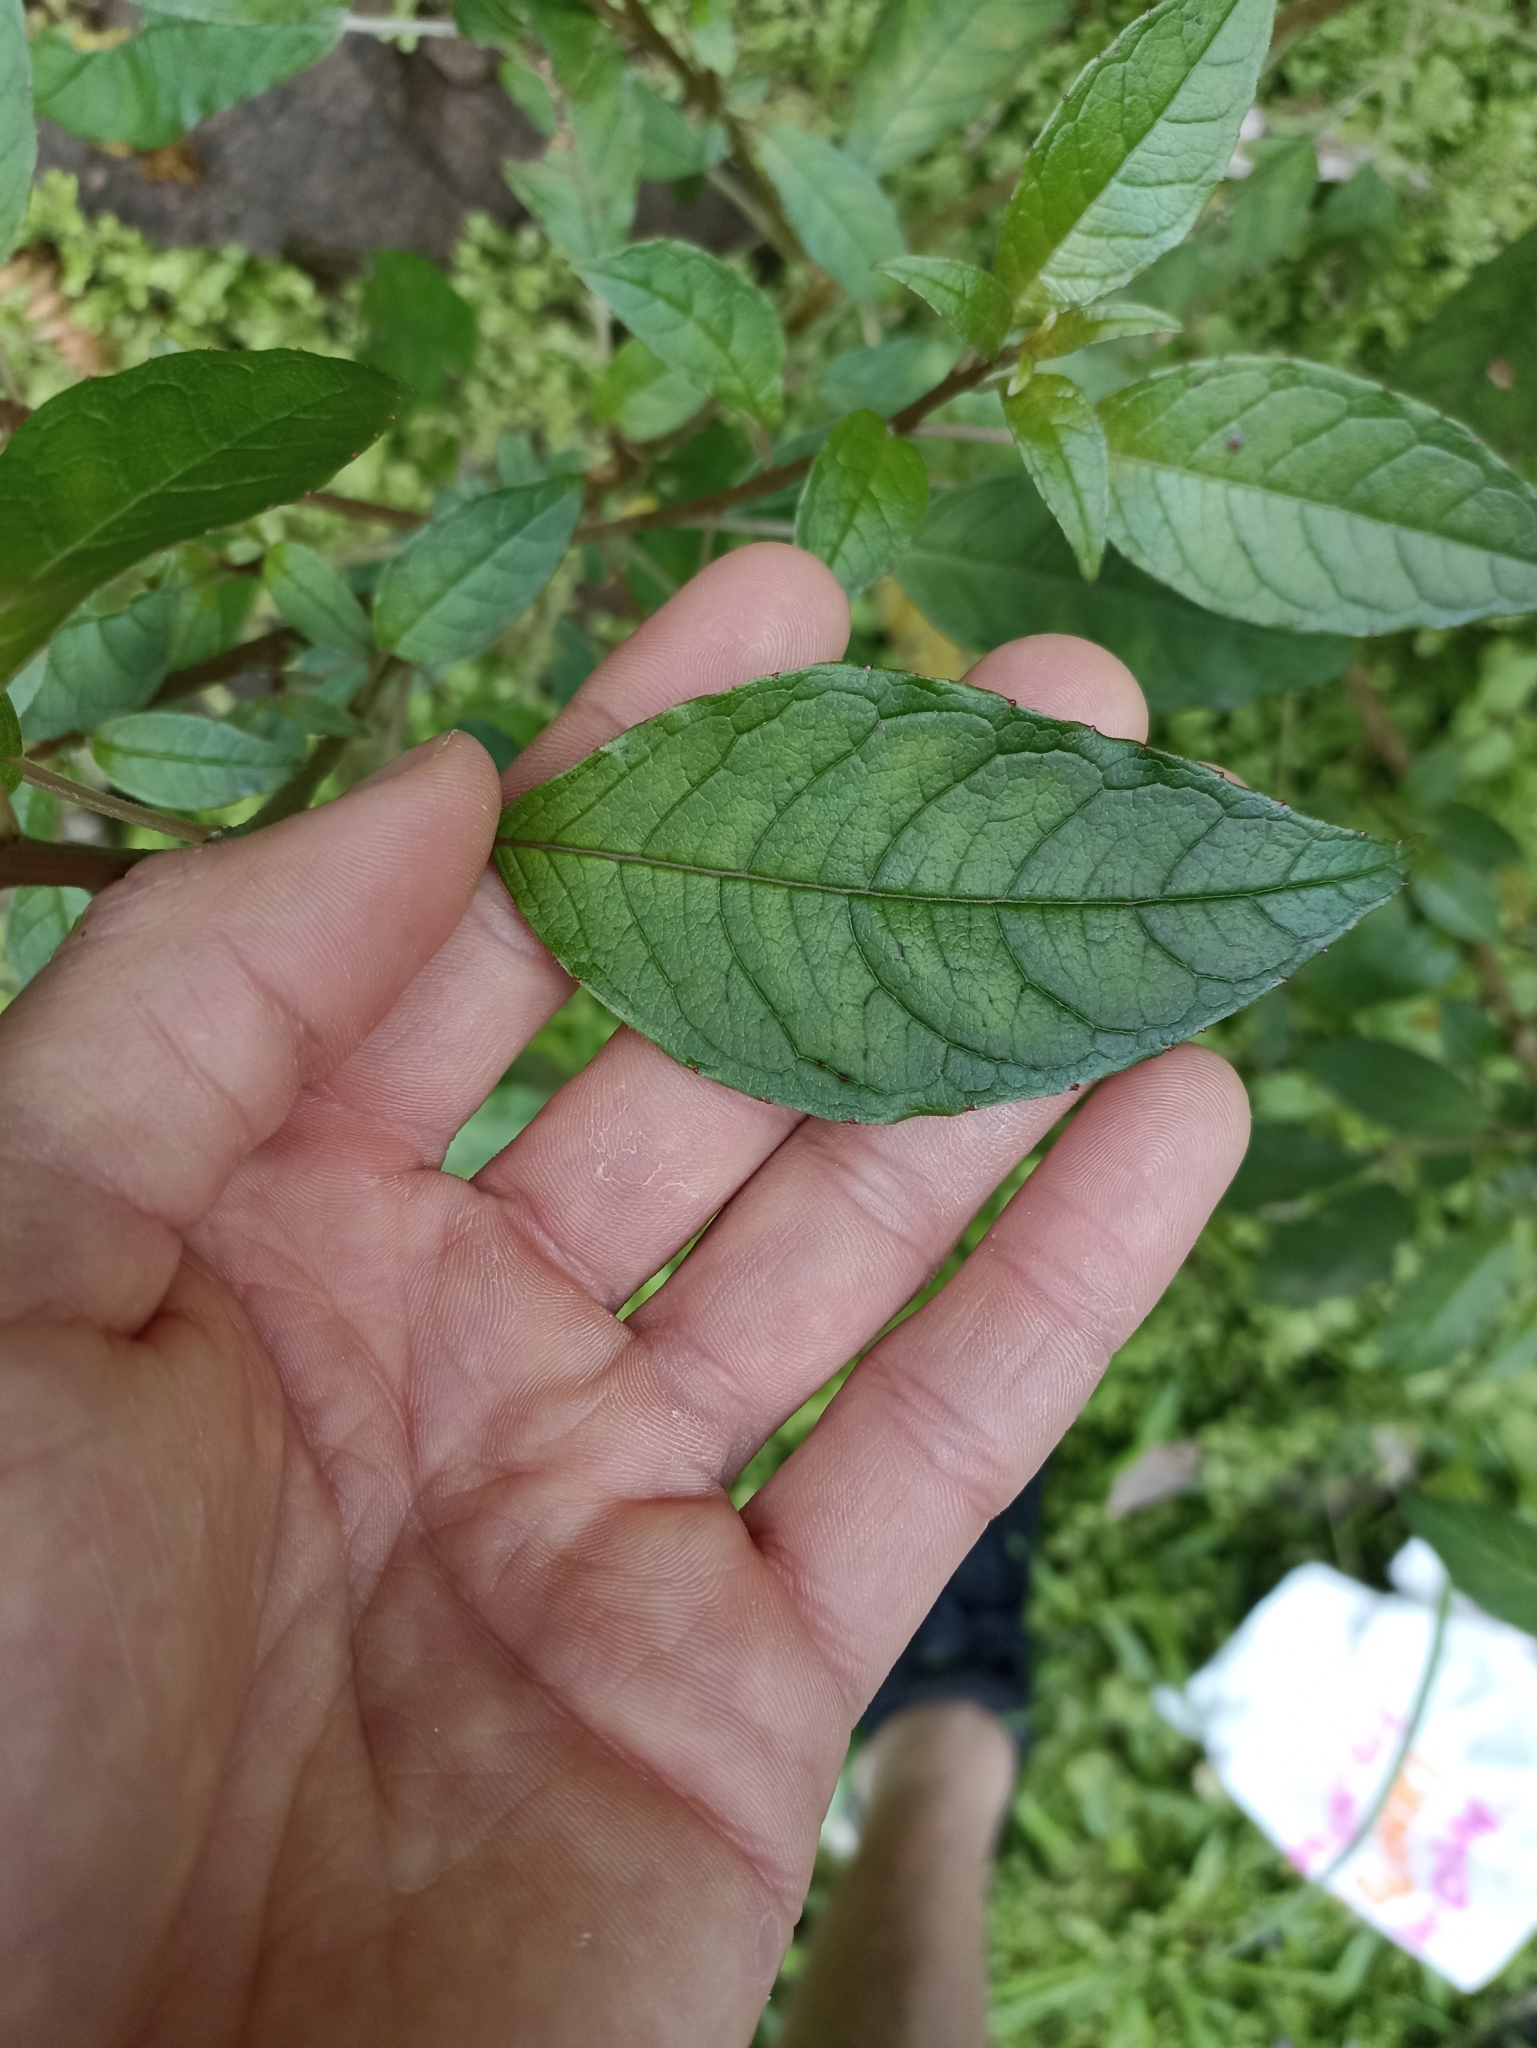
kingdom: Plantae
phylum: Tracheophyta
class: Magnoliopsida
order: Myrtales
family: Onagraceae
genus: Fuchsia
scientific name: Fuchsia excorticata
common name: Tree fuchsia
